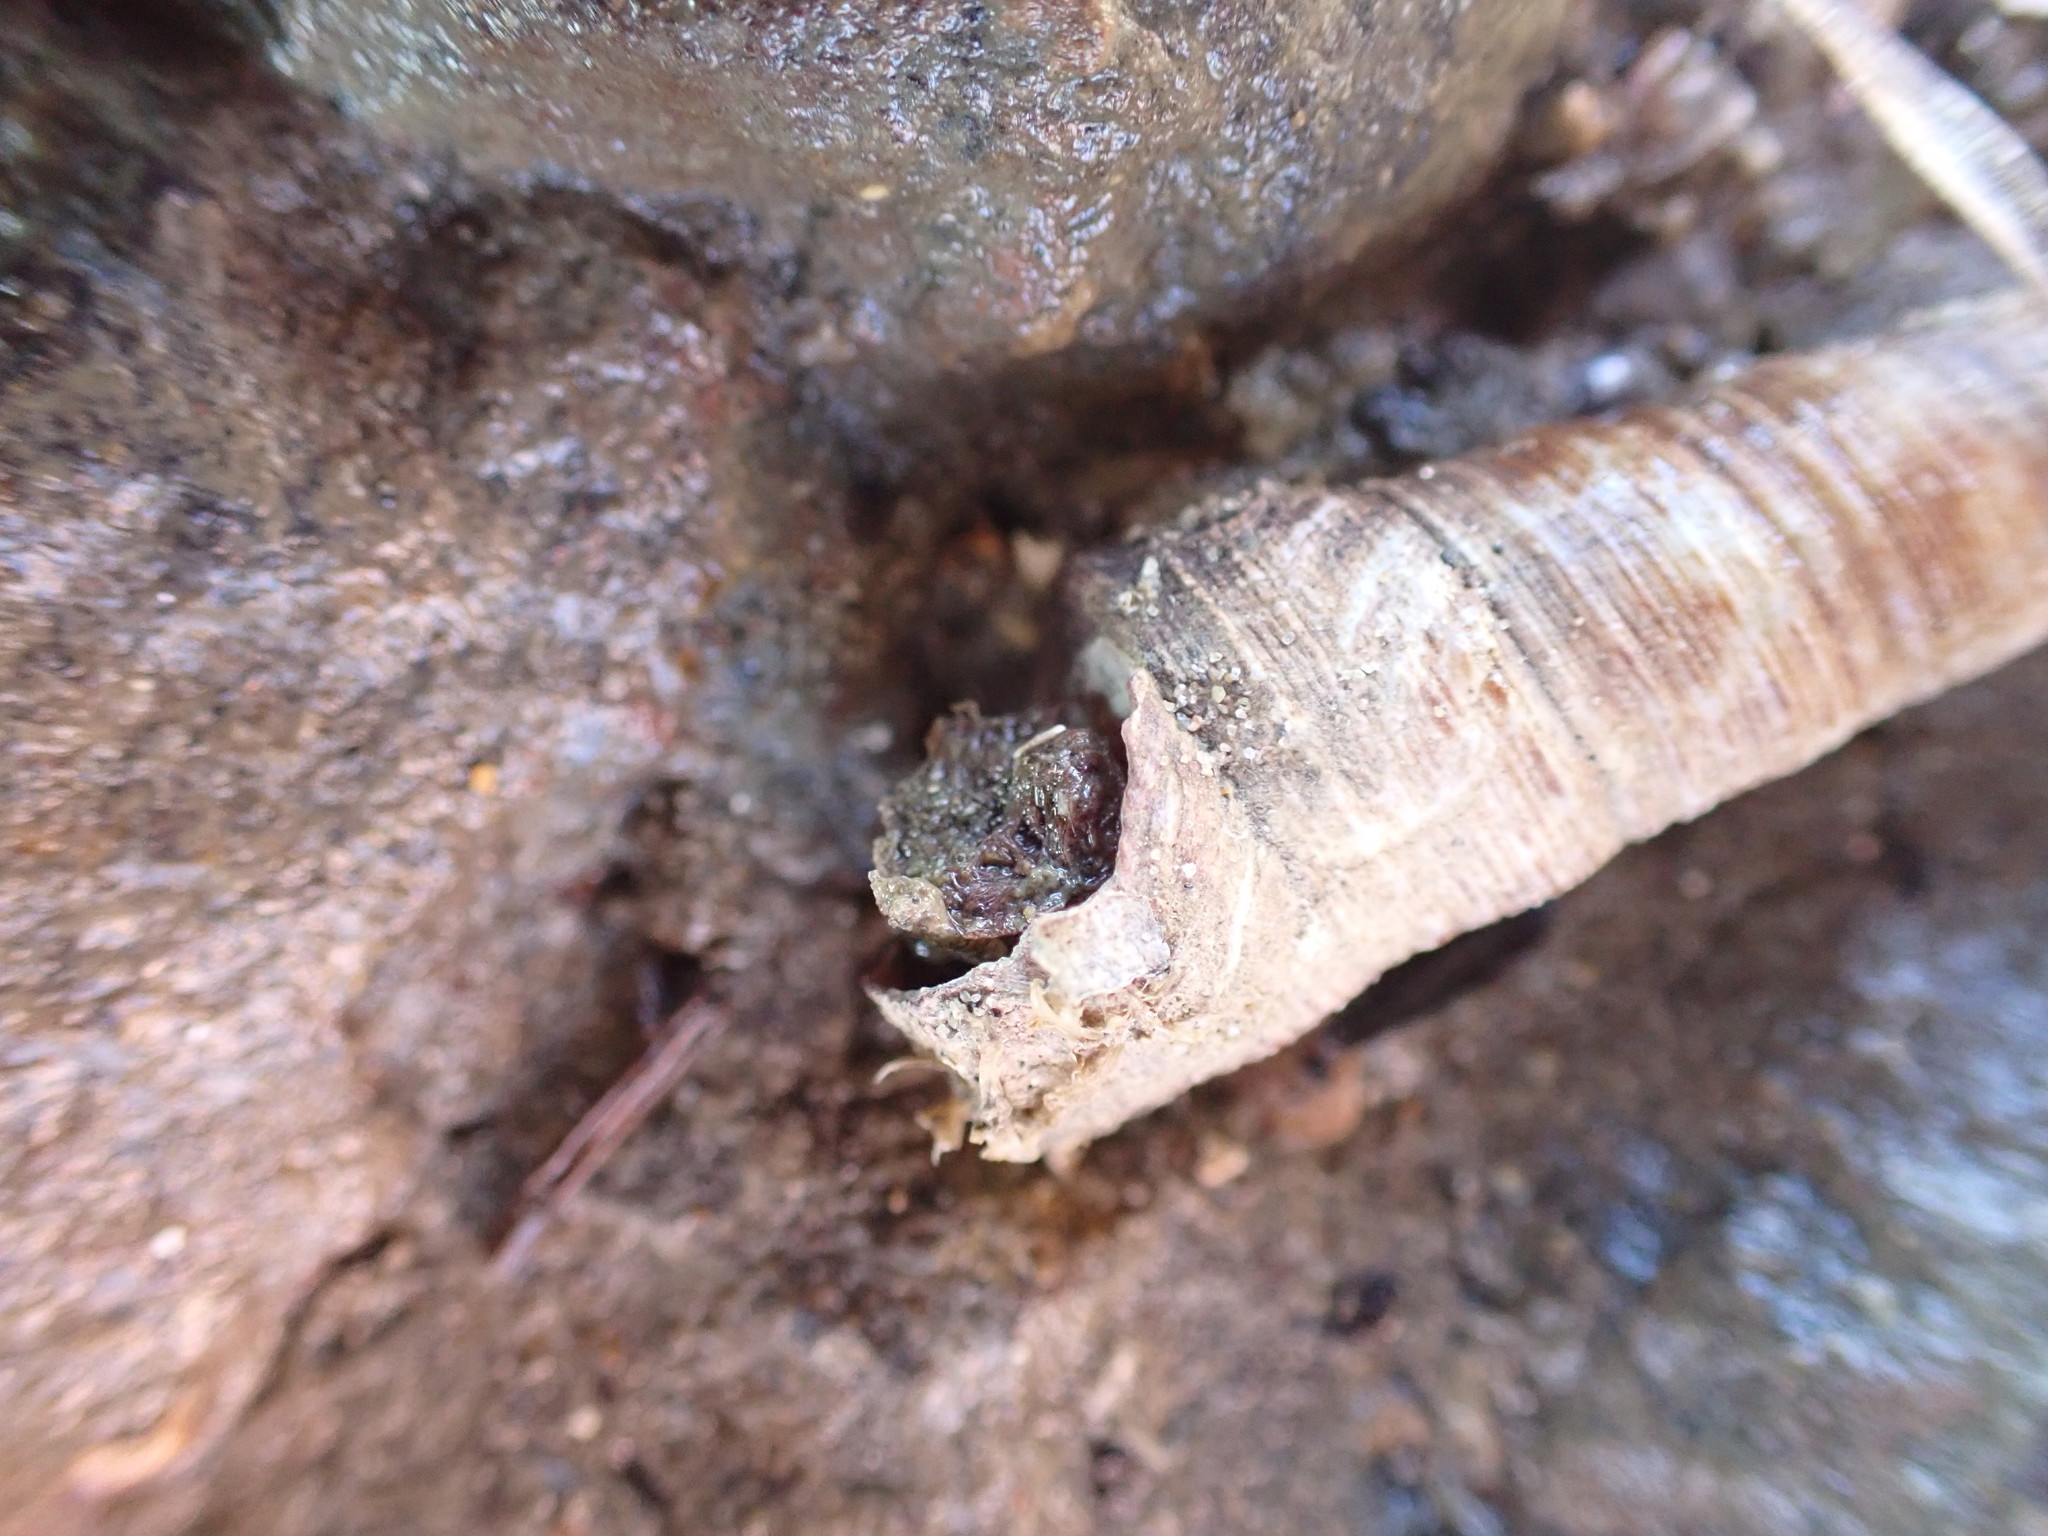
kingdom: Animalia
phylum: Mollusca
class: Gastropoda
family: Turritellidae
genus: Maoricolpus
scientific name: Maoricolpus roseus
